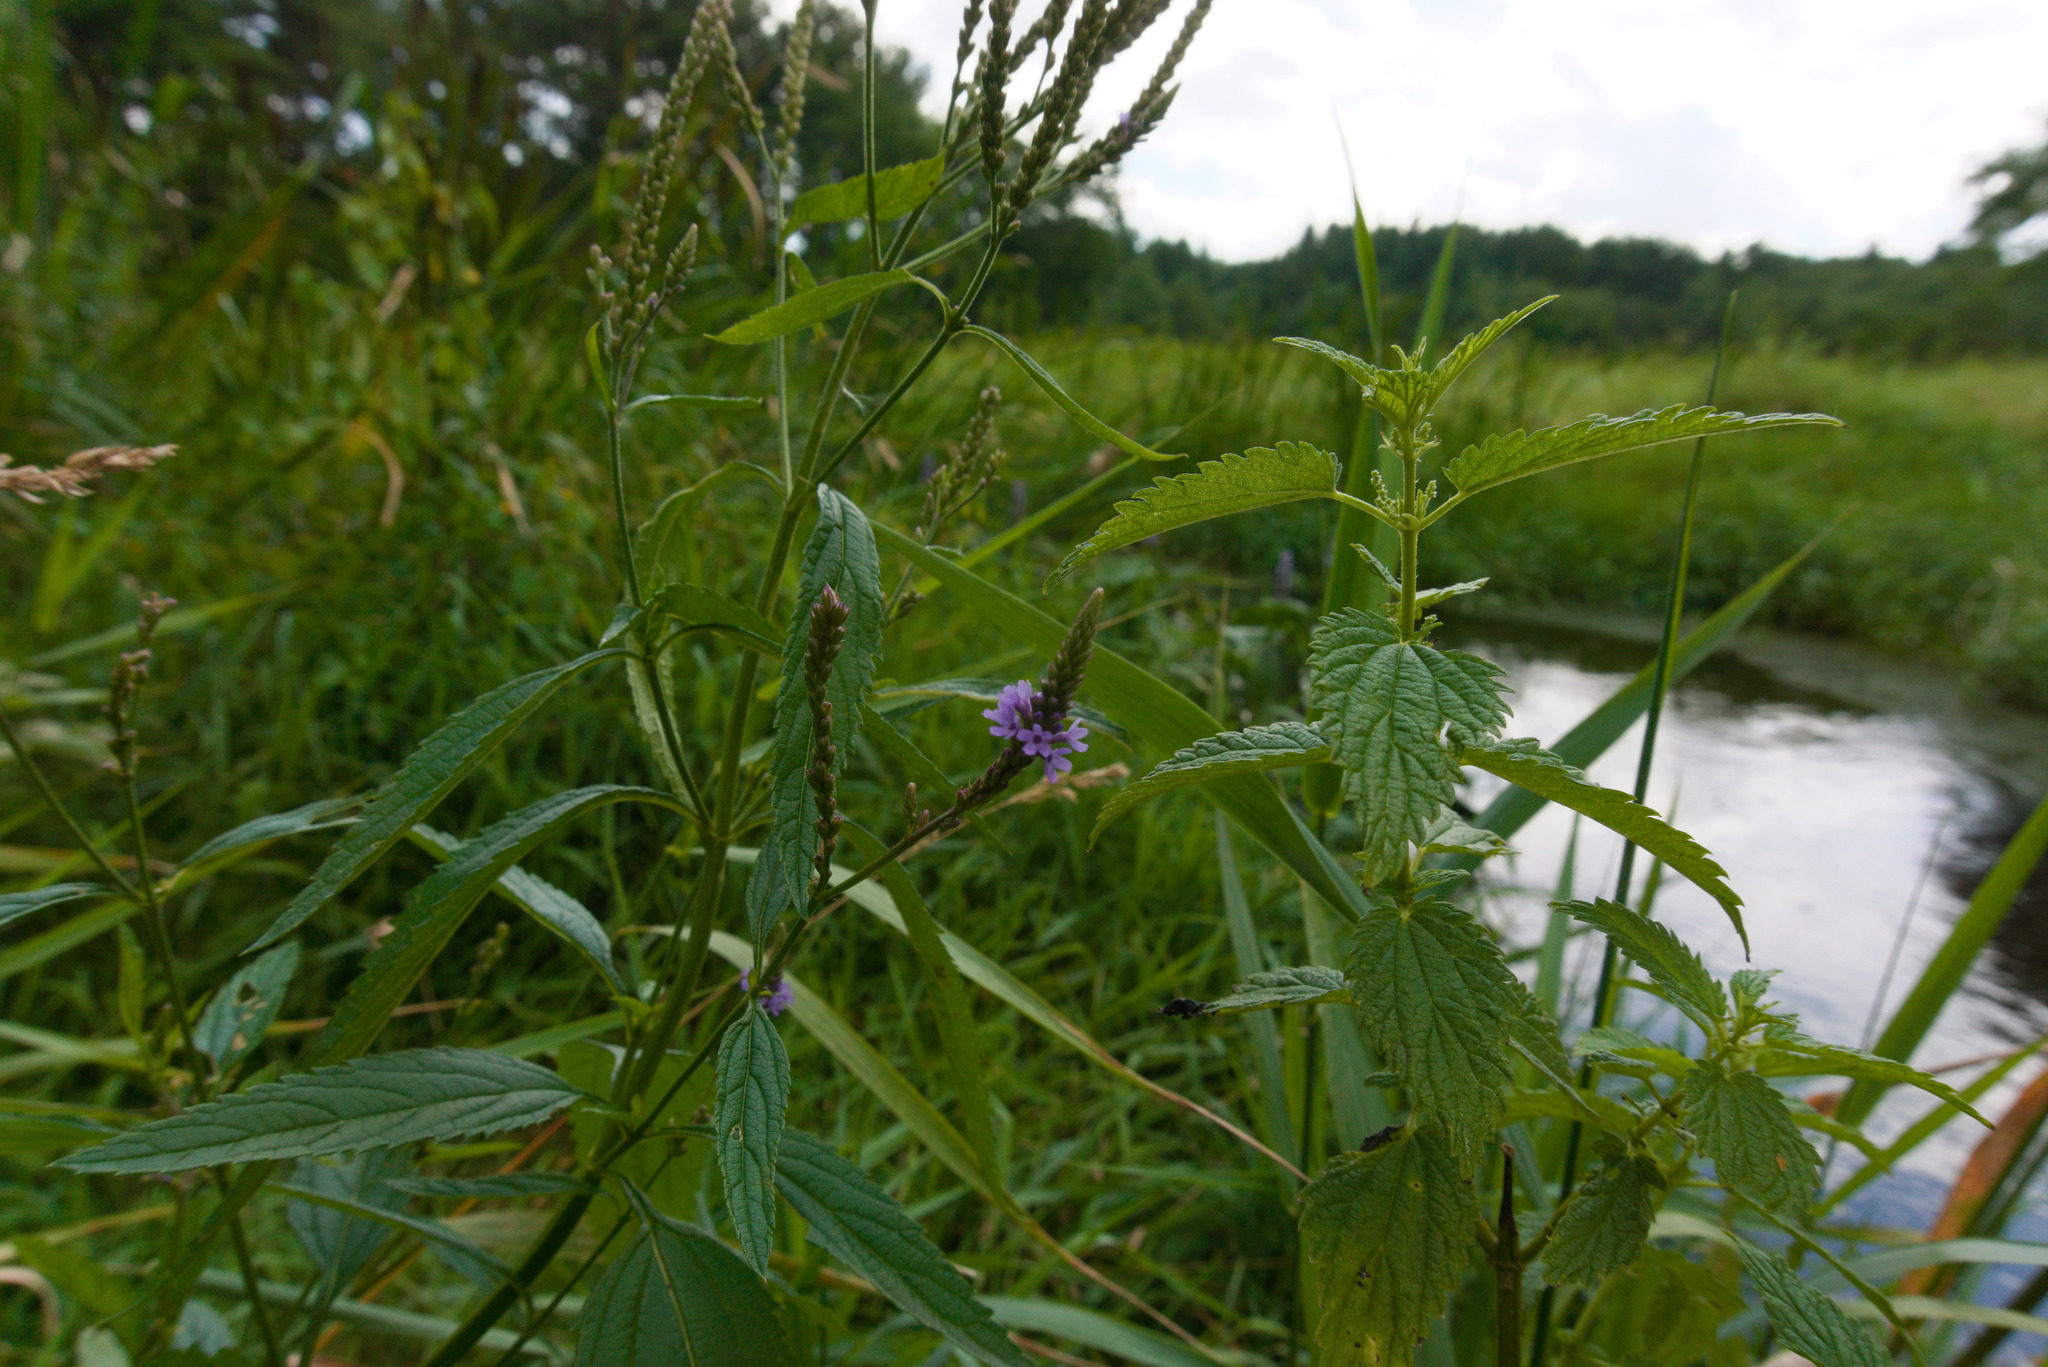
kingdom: Plantae
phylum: Tracheophyta
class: Magnoliopsida
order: Lamiales
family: Verbenaceae
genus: Verbena
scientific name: Verbena hastata
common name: American blue vervain
